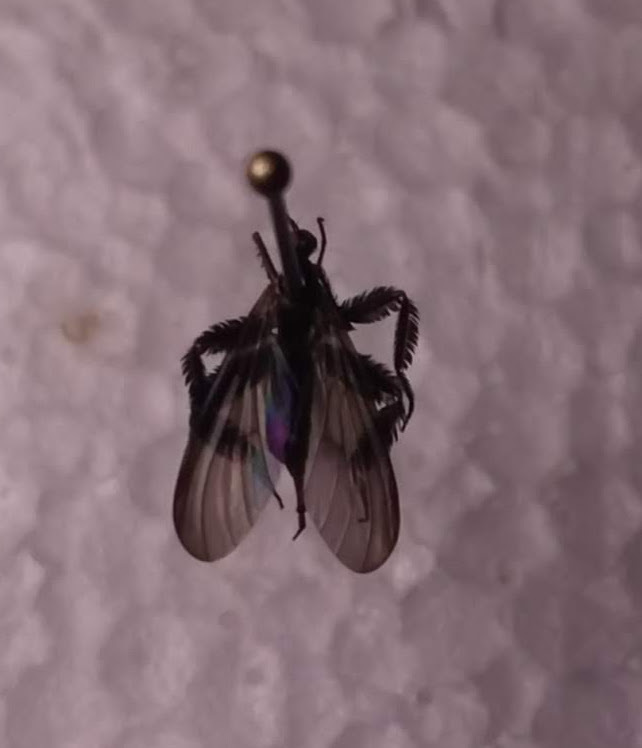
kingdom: Animalia
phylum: Arthropoda
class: Insecta
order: Diptera
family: Empididae
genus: Rhamphomyia
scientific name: Rhamphomyia longicauda
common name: Long-tailed dance fly
